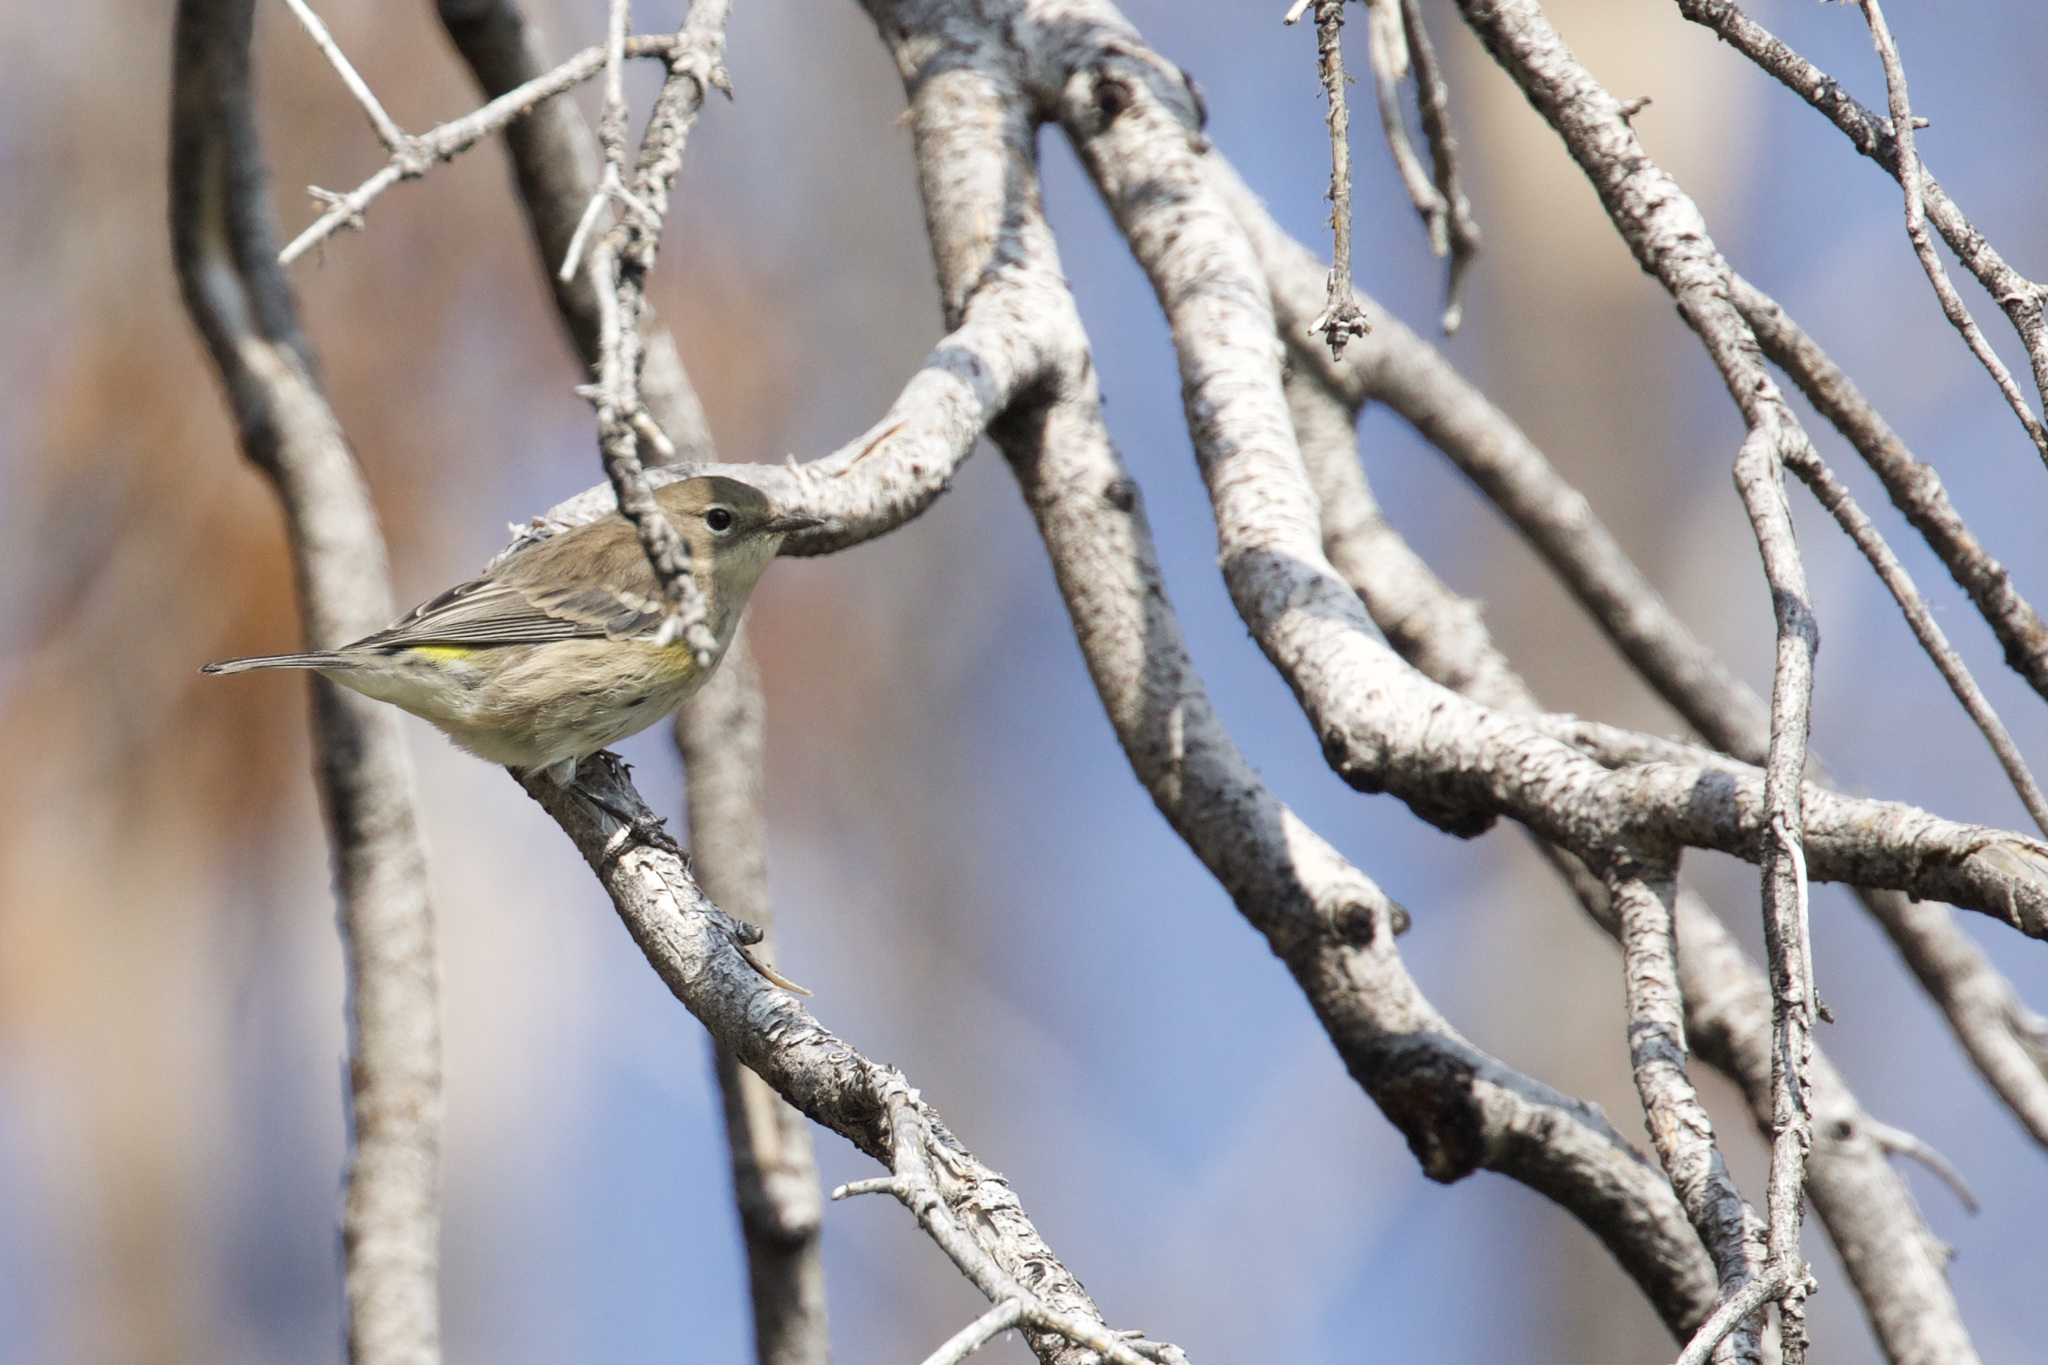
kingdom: Animalia
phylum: Chordata
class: Aves
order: Passeriformes
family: Parulidae
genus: Setophaga
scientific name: Setophaga coronata
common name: Myrtle warbler
